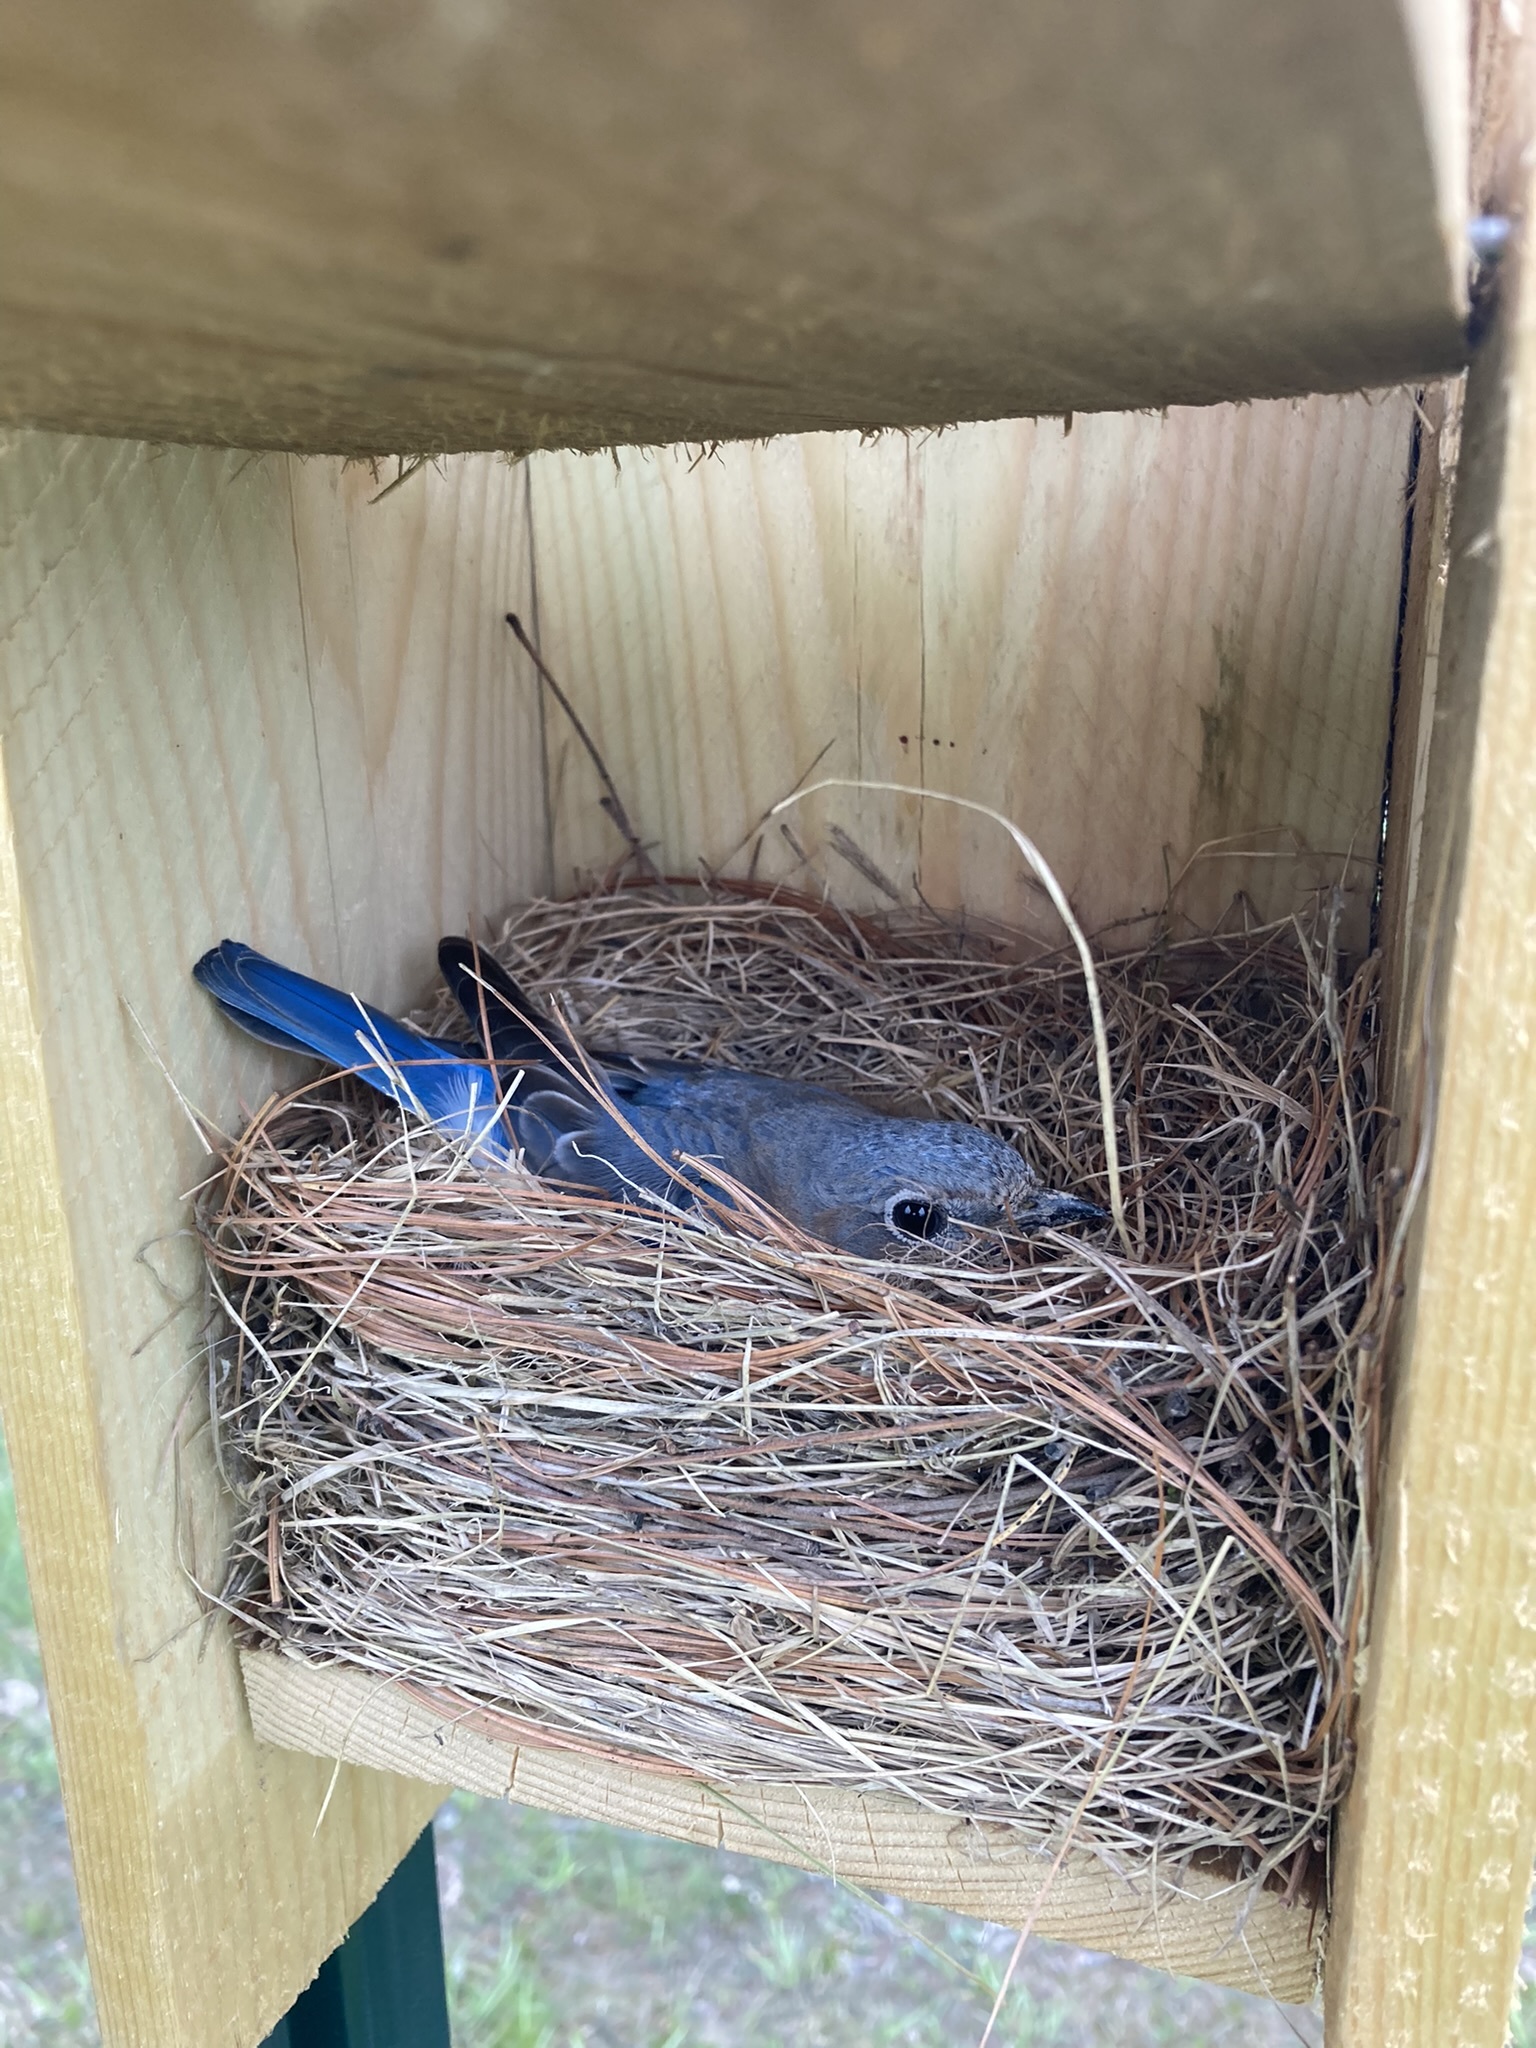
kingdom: Animalia
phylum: Chordata
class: Aves
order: Passeriformes
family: Turdidae
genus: Sialia
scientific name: Sialia sialis
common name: Eastern bluebird
